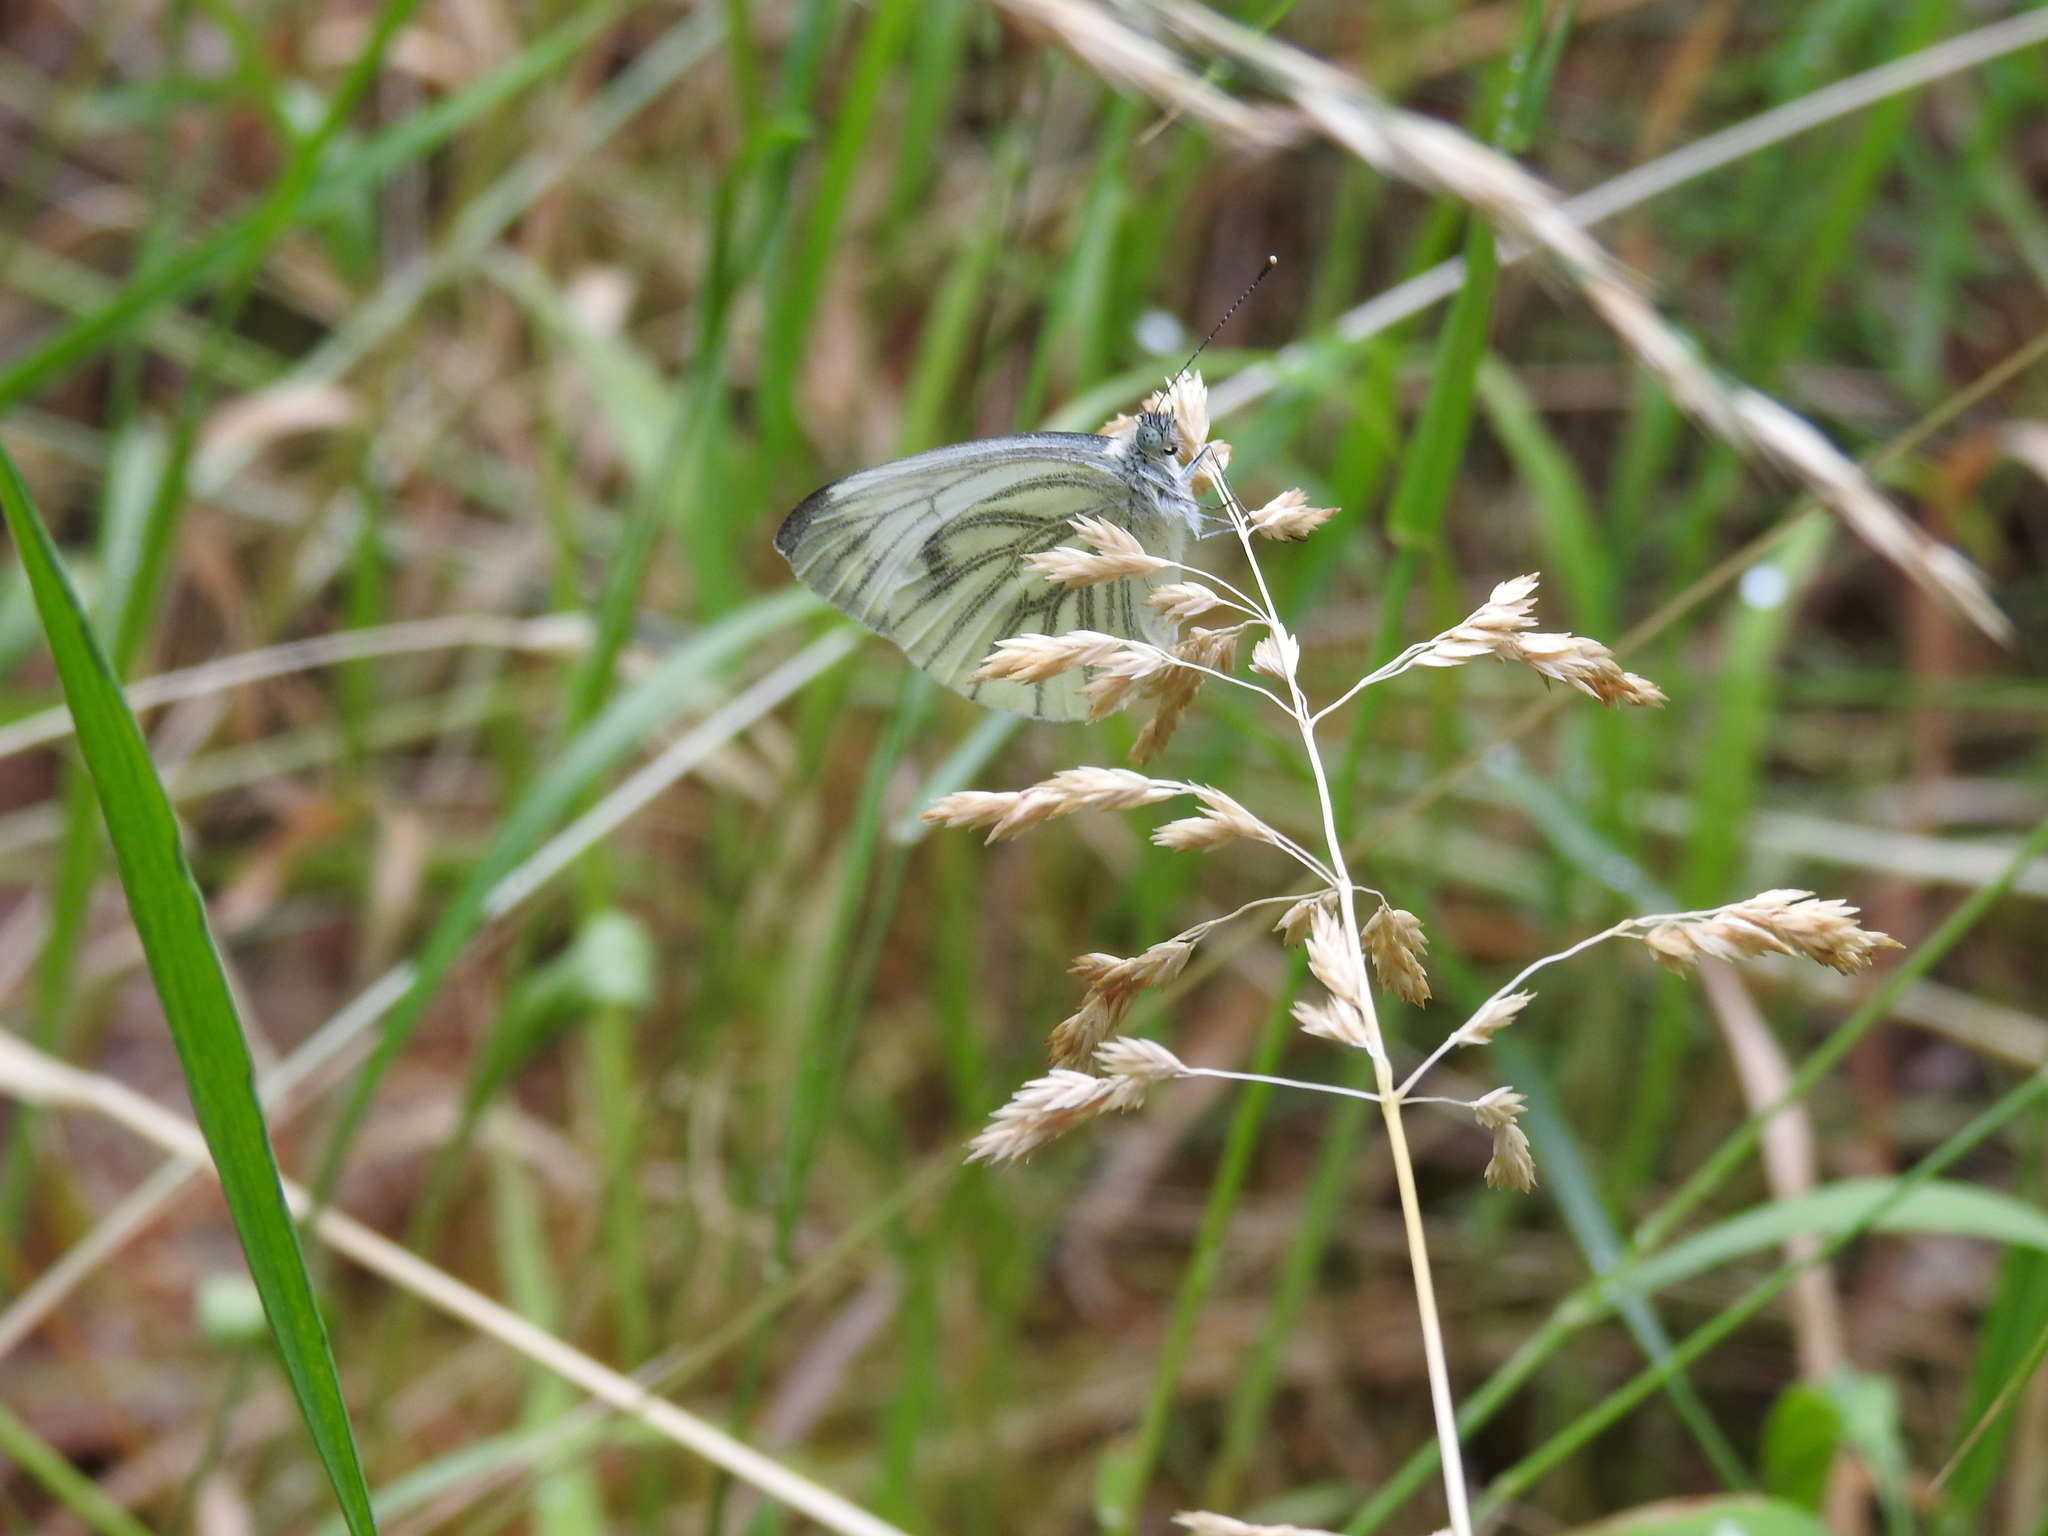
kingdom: Animalia
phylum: Arthropoda
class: Insecta
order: Lepidoptera
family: Pieridae
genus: Pieris
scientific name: Pieris napi
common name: Green-veined white
